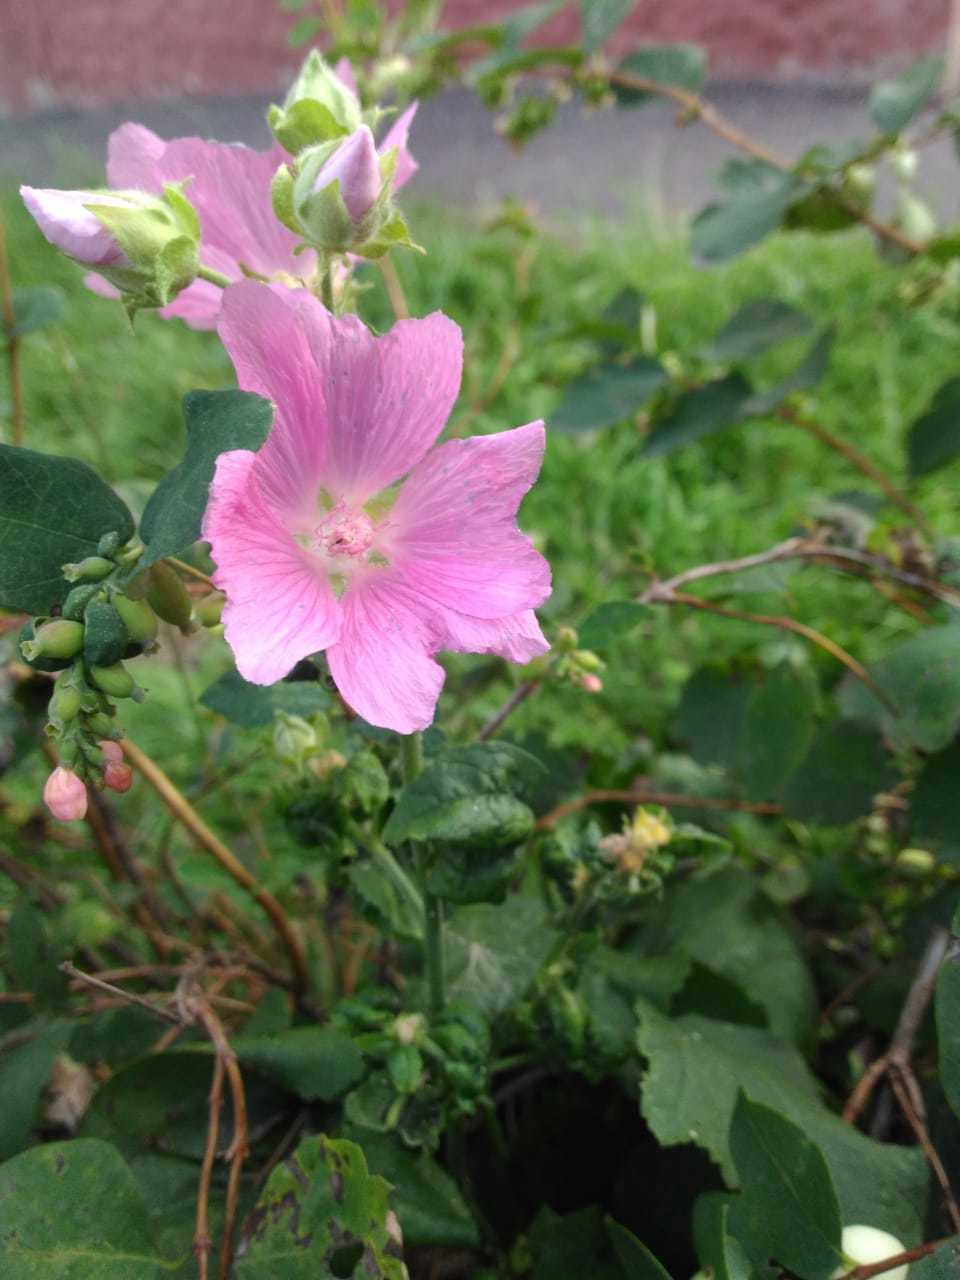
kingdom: Plantae
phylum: Tracheophyta
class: Magnoliopsida
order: Malvales
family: Malvaceae
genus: Malva
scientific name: Malva thuringiaca
